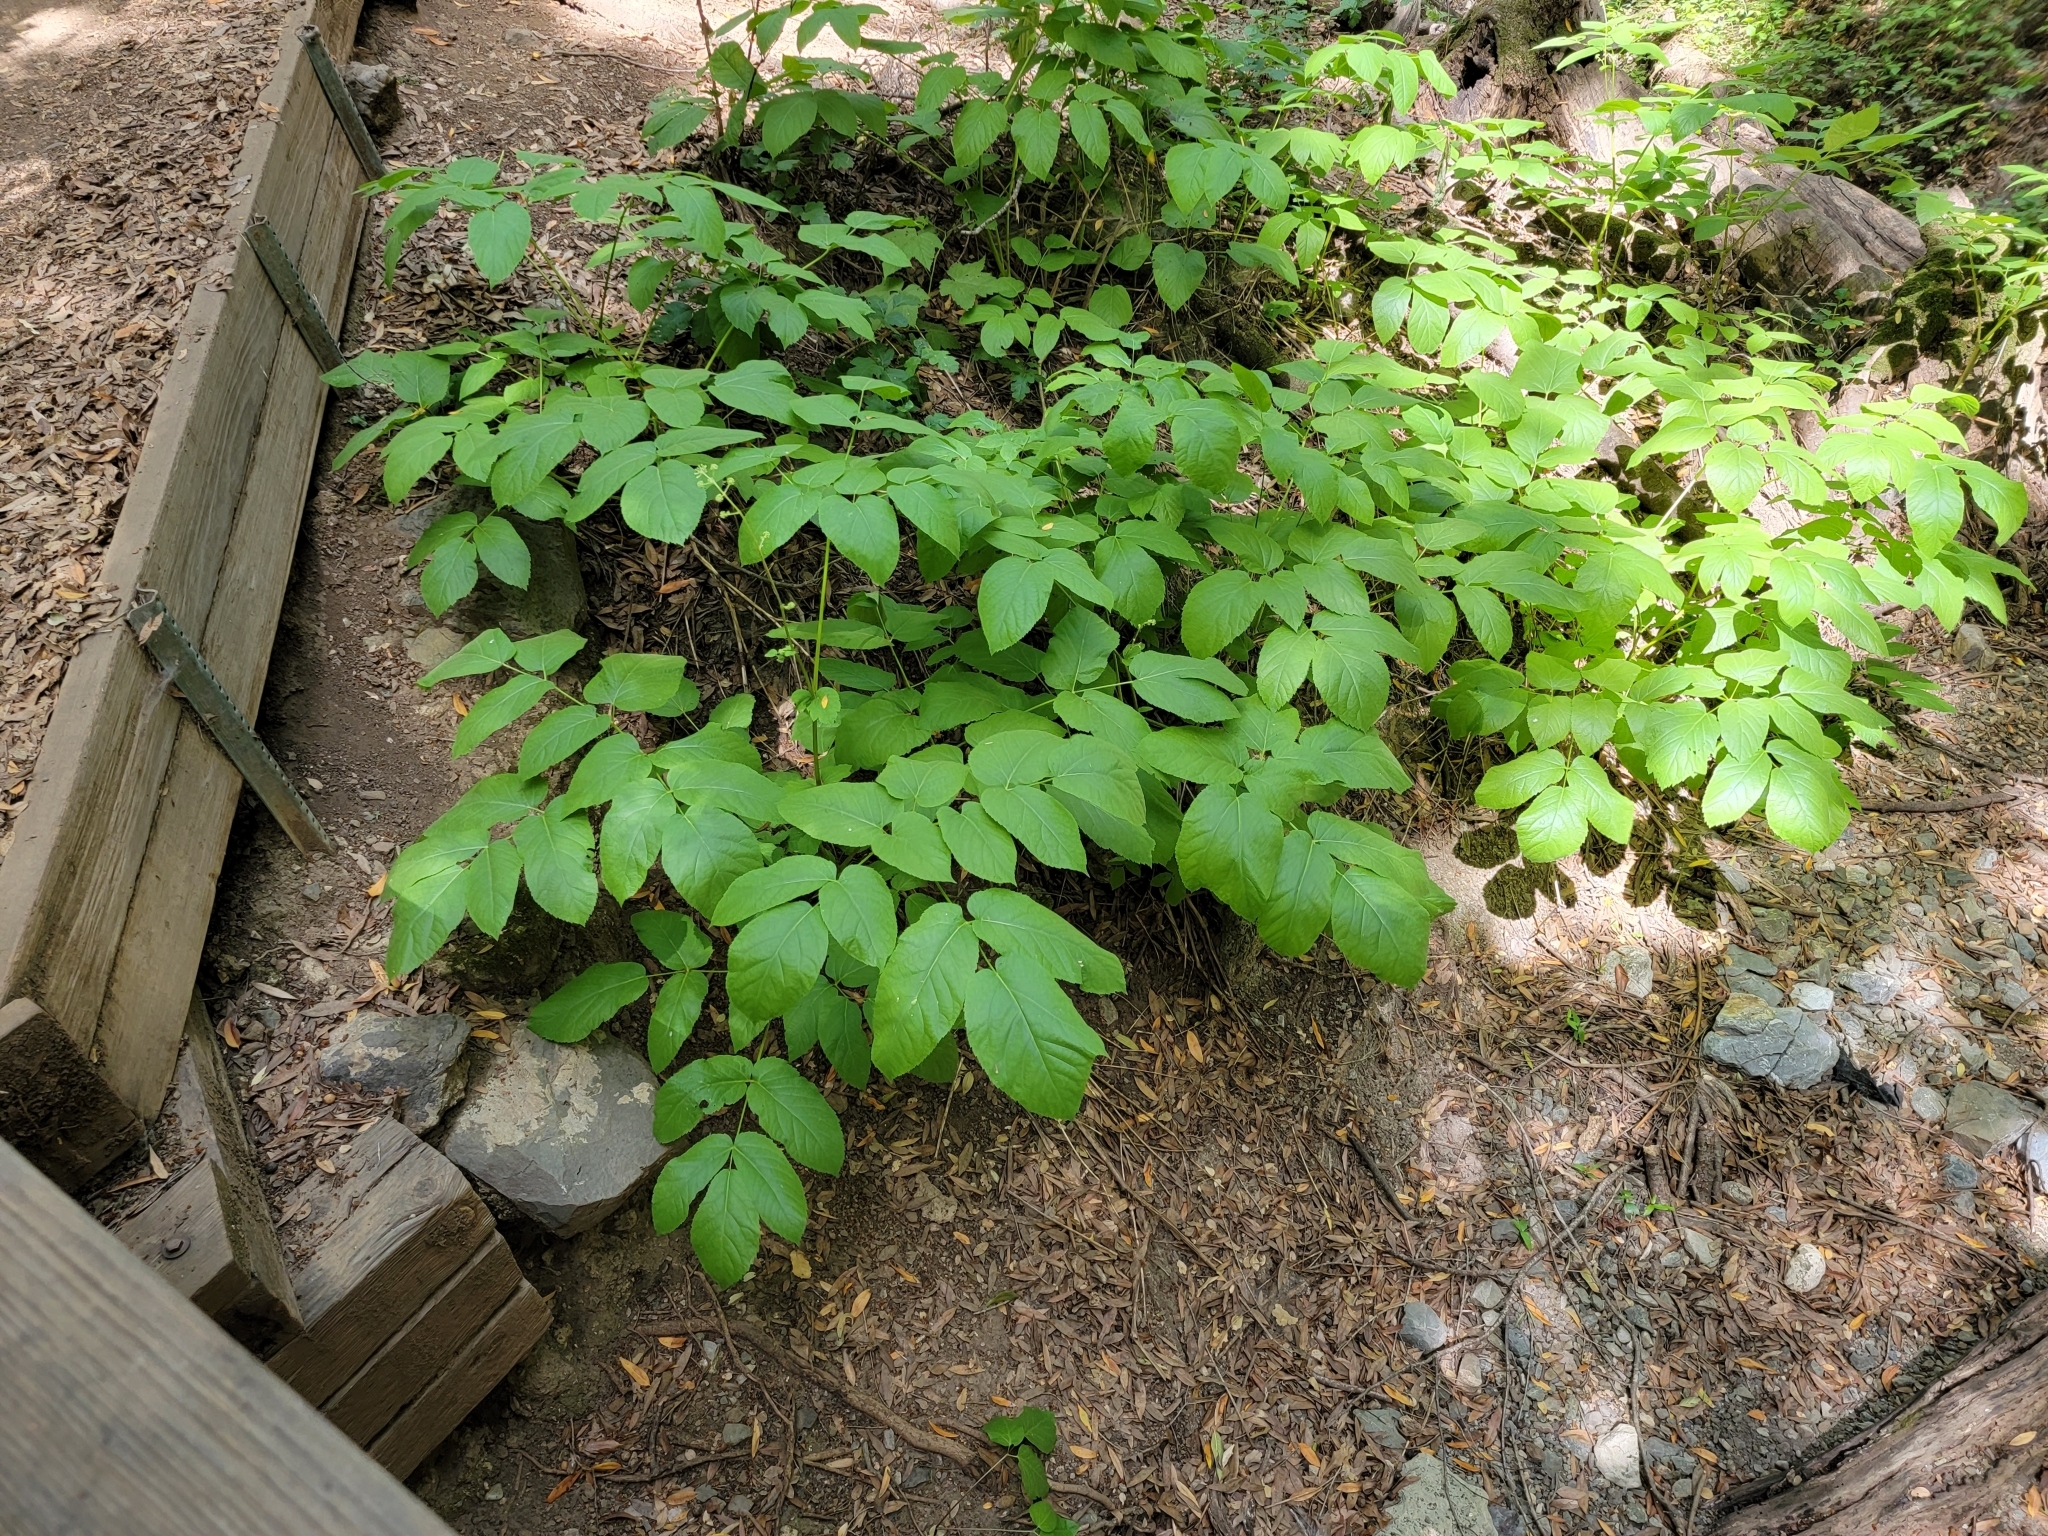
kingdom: Plantae
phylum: Tracheophyta
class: Magnoliopsida
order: Apiales
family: Araliaceae
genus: Aralia
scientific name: Aralia californica
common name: California-ginseng
